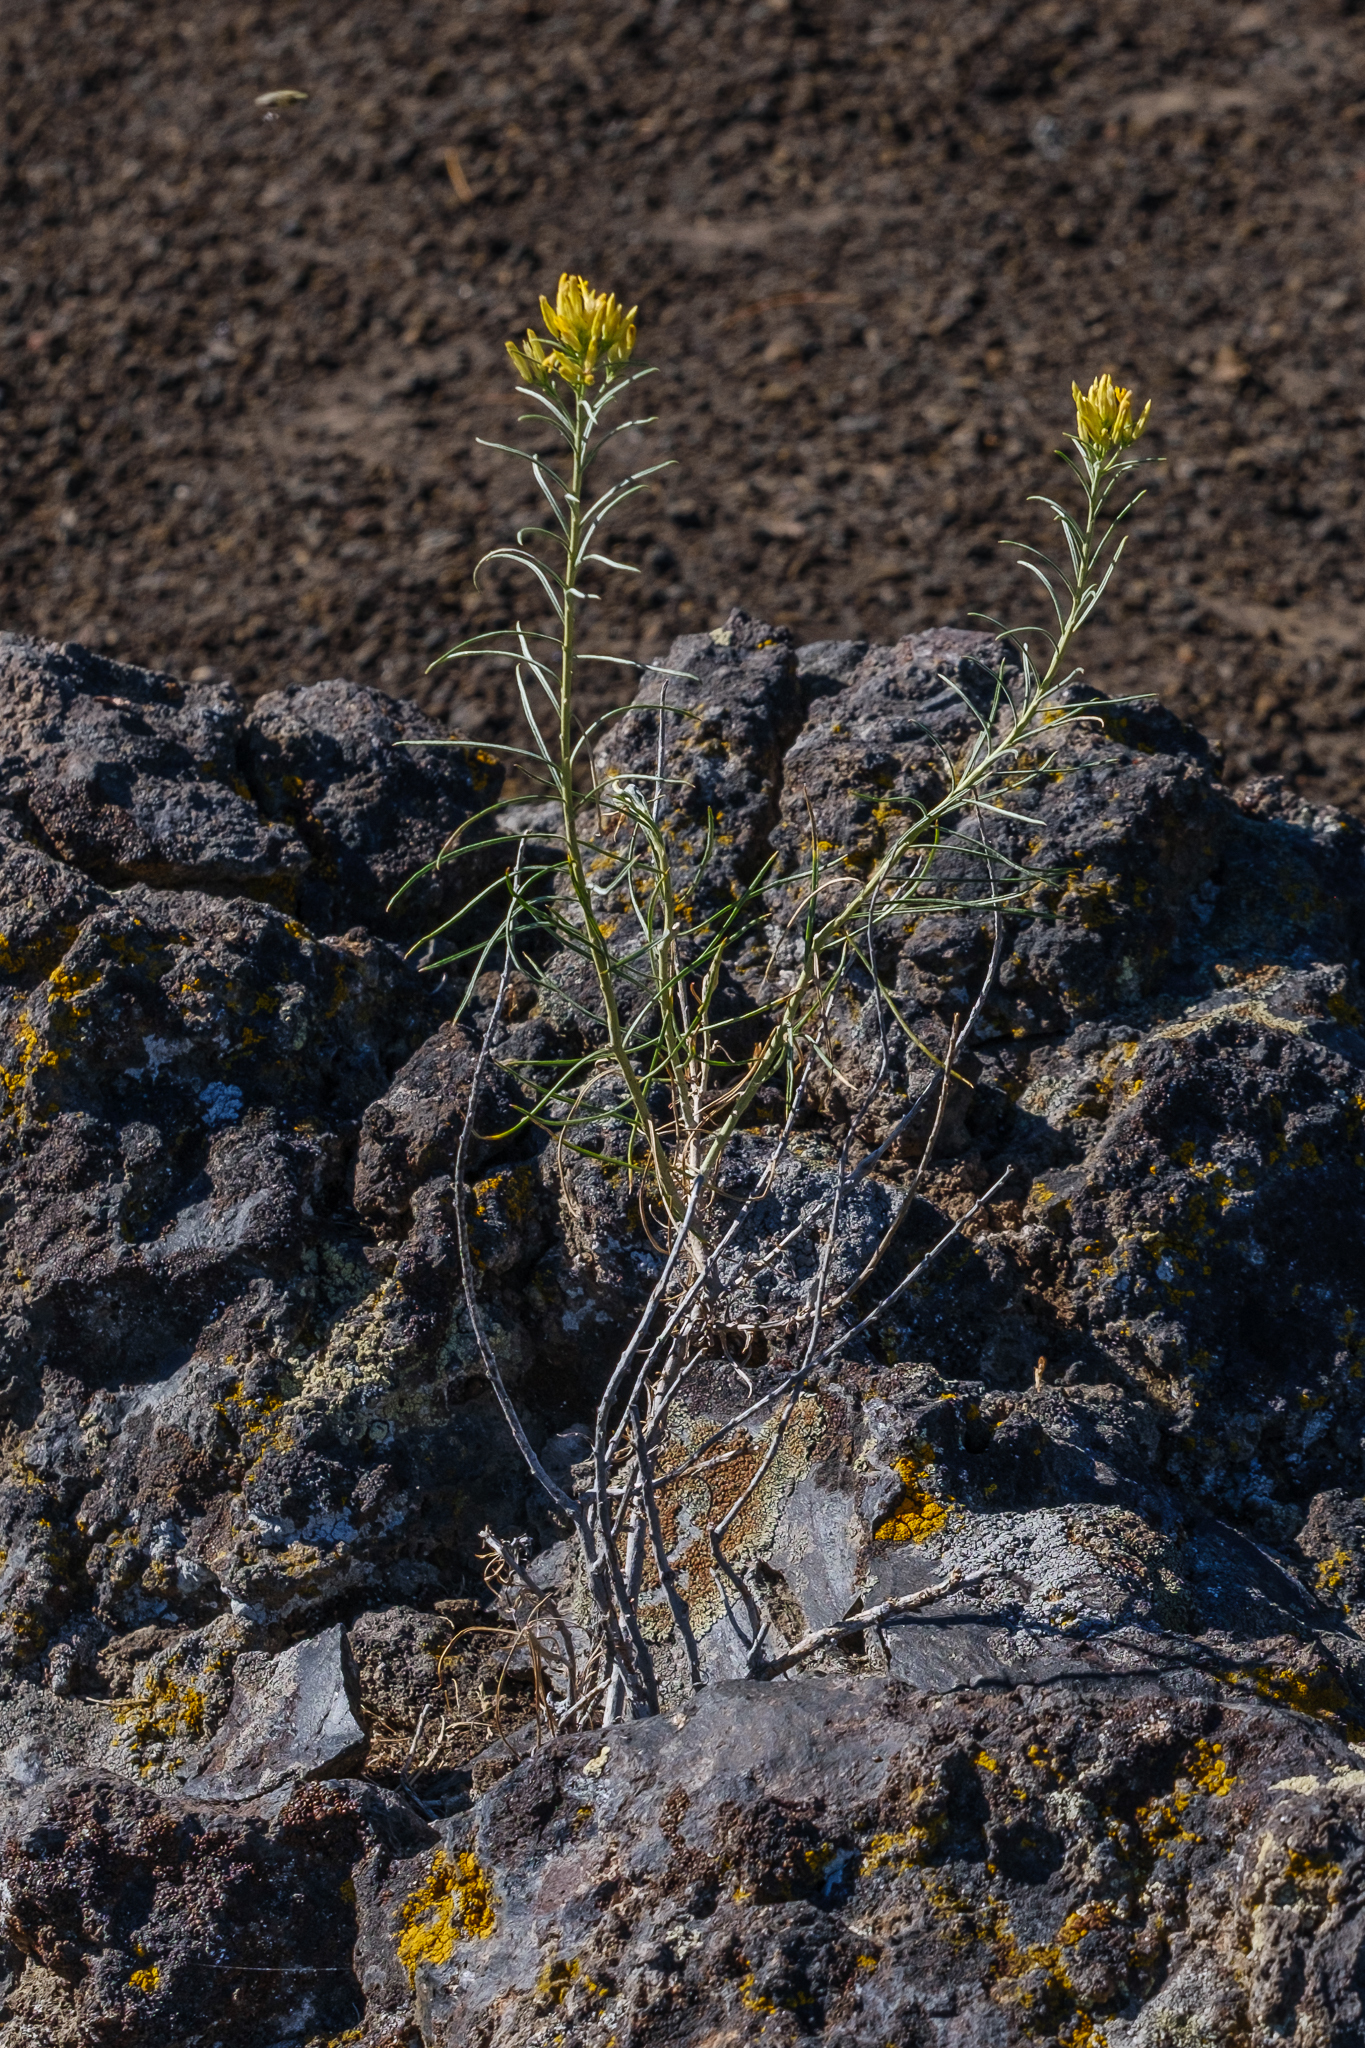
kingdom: Plantae
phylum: Tracheophyta
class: Magnoliopsida
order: Asterales
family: Asteraceae
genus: Ericameria
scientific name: Ericameria nauseosa
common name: Rubber rabbitbrush
